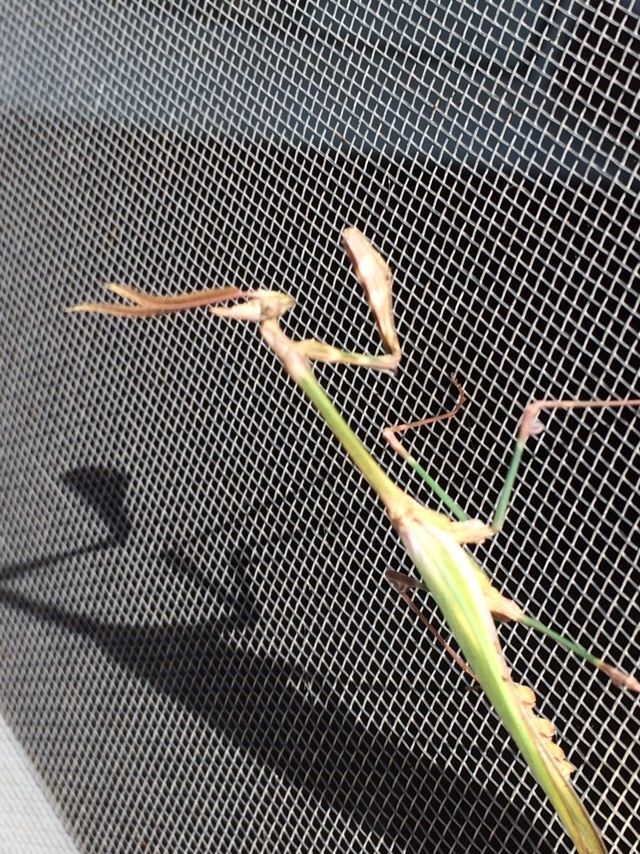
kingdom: Animalia
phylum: Arthropoda
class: Insecta
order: Mantodea
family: Empusidae
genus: Empusa
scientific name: Empusa fasciata
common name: Devil's mare
